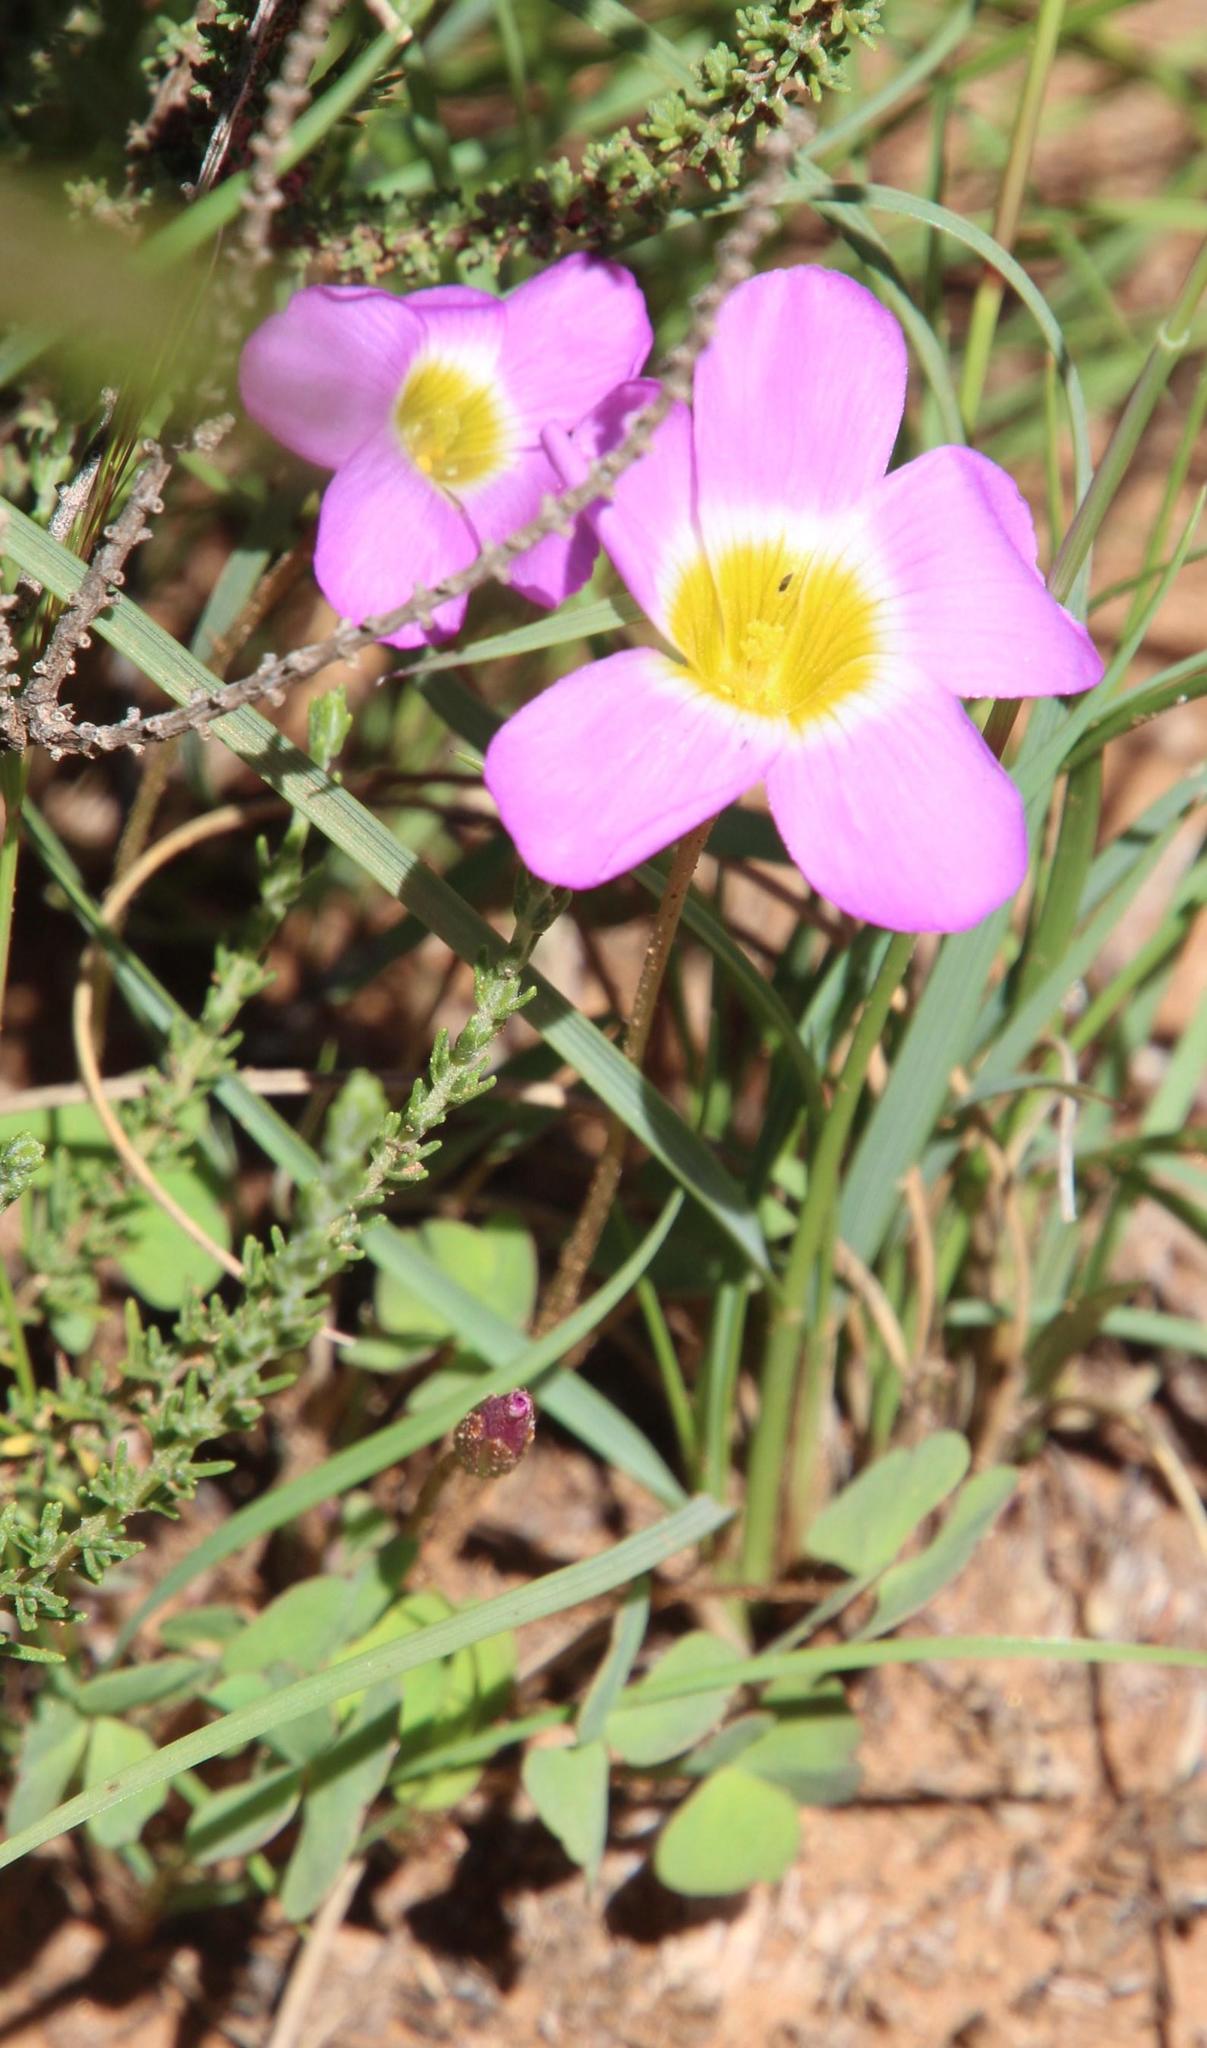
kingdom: Plantae
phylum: Tracheophyta
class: Magnoliopsida
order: Oxalidales
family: Oxalidaceae
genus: Oxalis
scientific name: Oxalis obliquifolia
